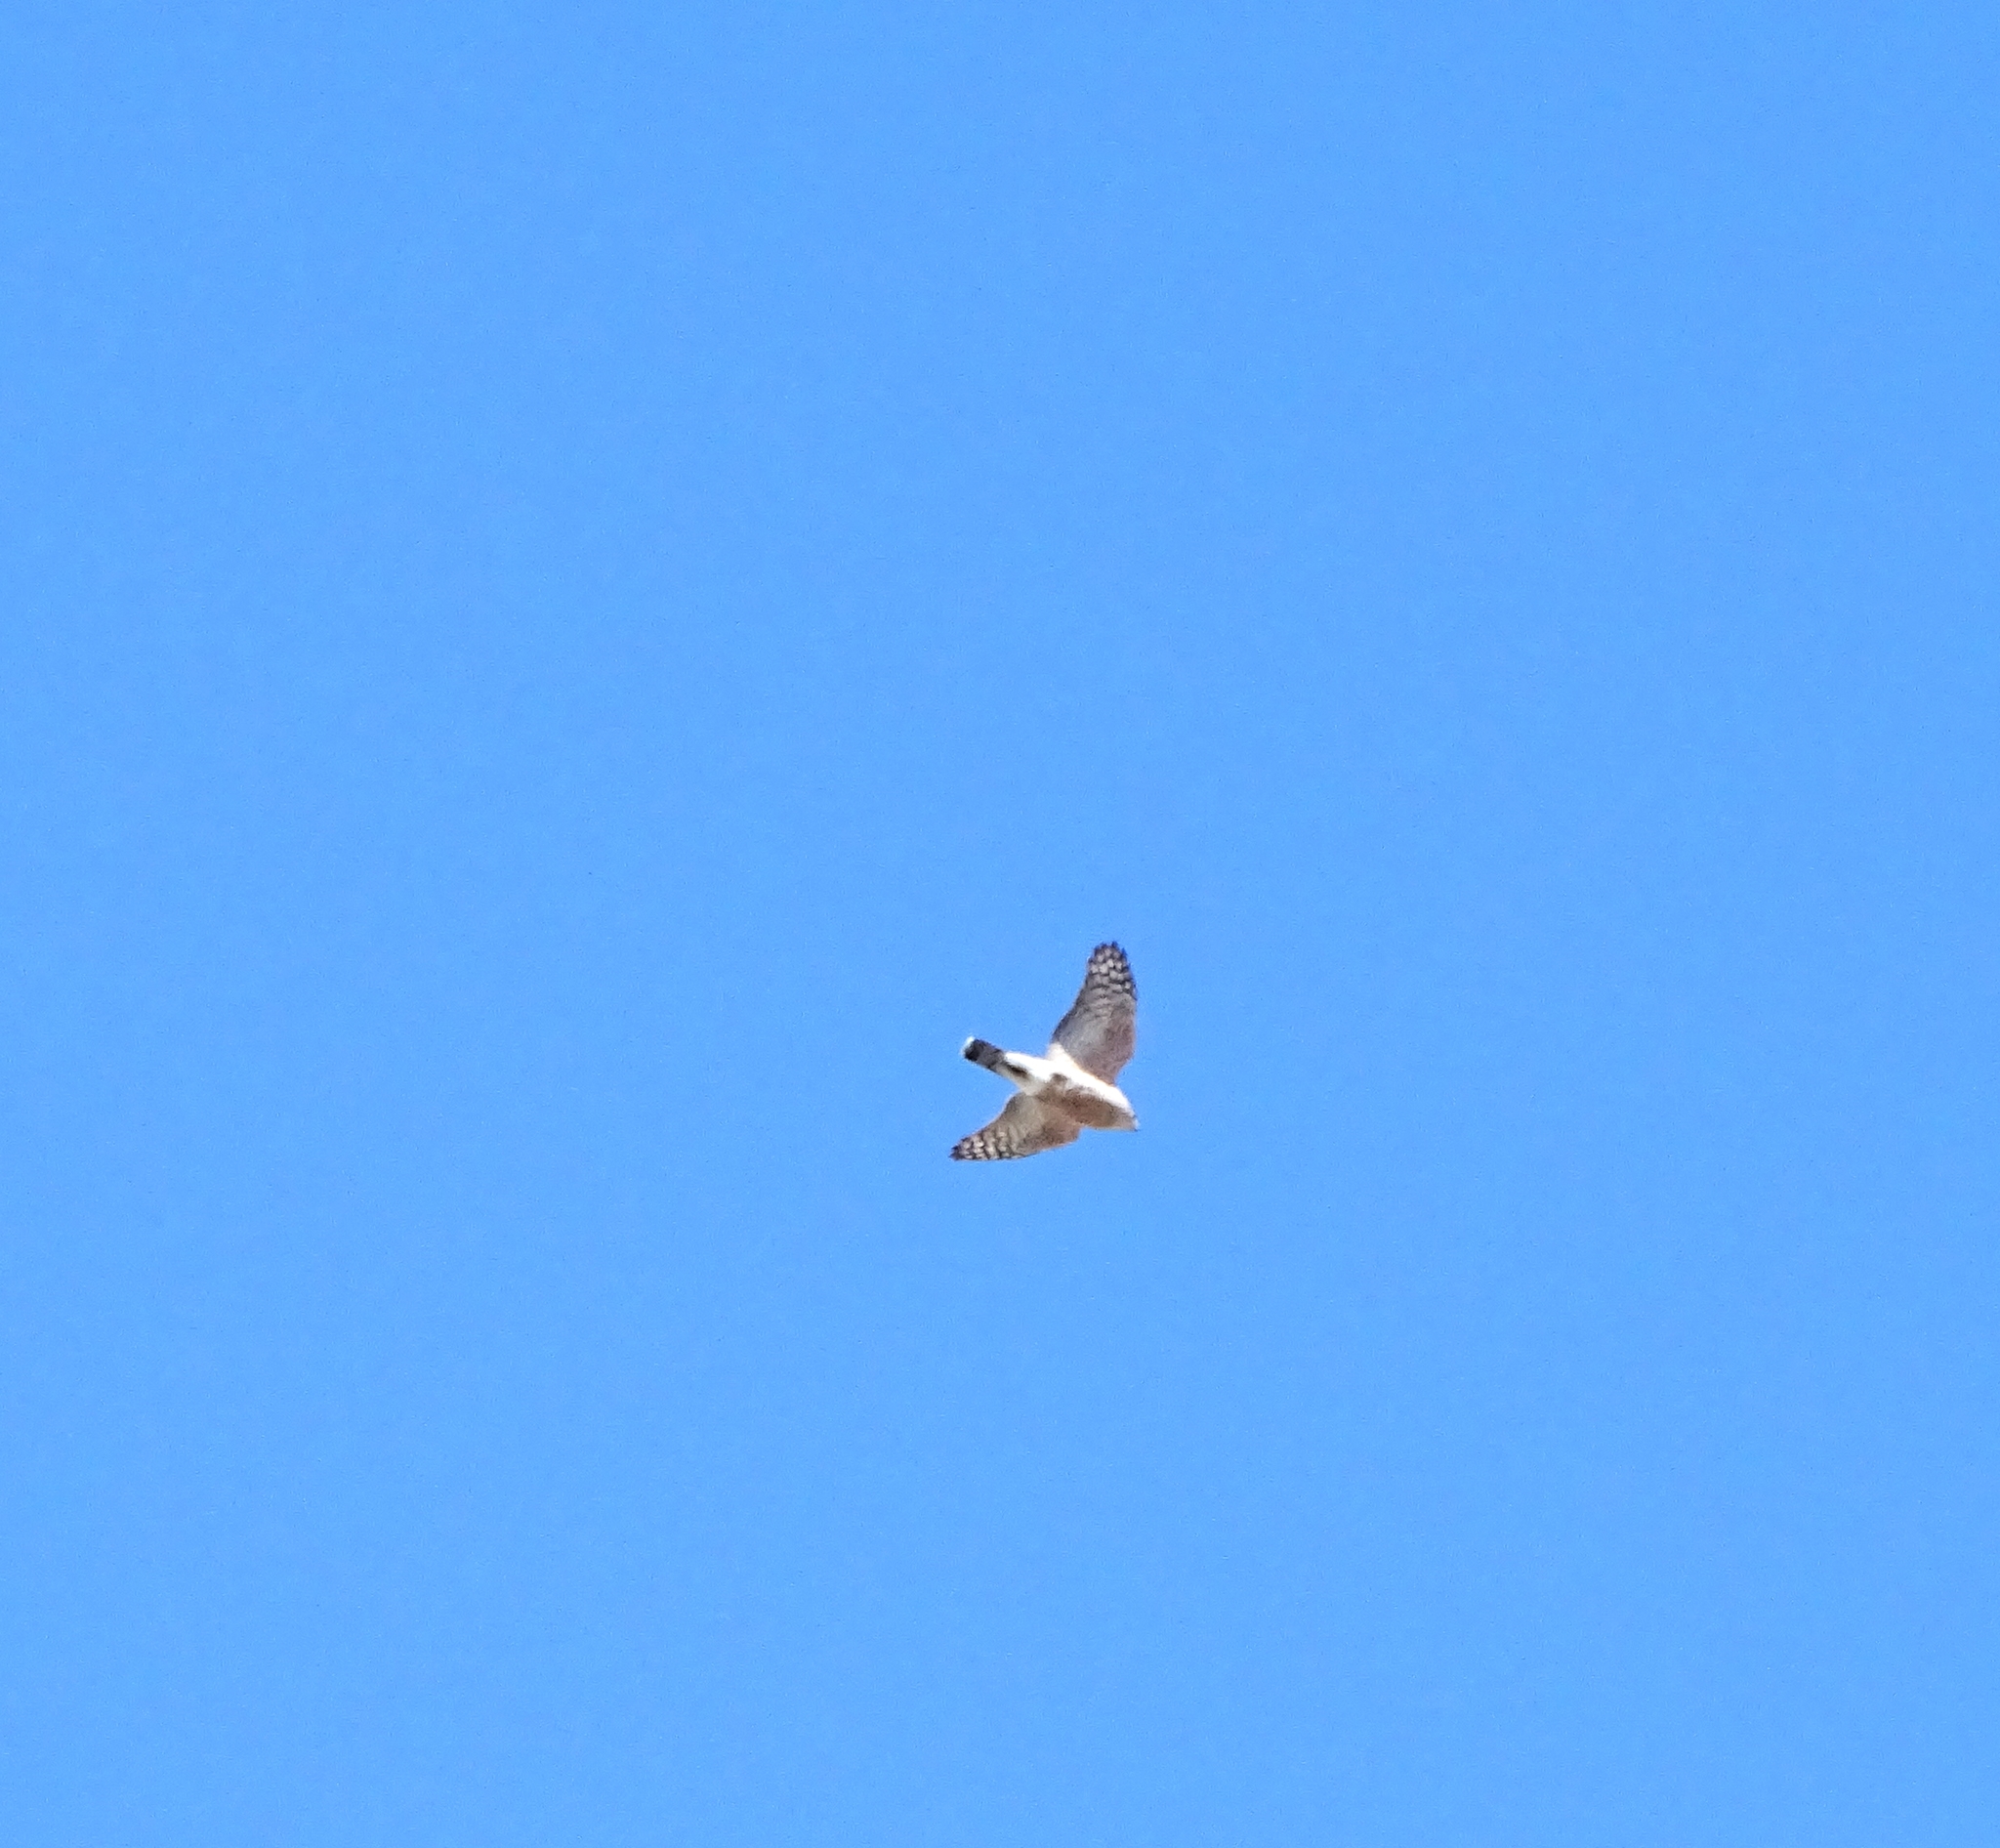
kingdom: Animalia
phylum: Chordata
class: Aves
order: Accipitriformes
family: Accipitridae
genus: Accipiter
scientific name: Accipiter striatus
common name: Sharp-shinned hawk
